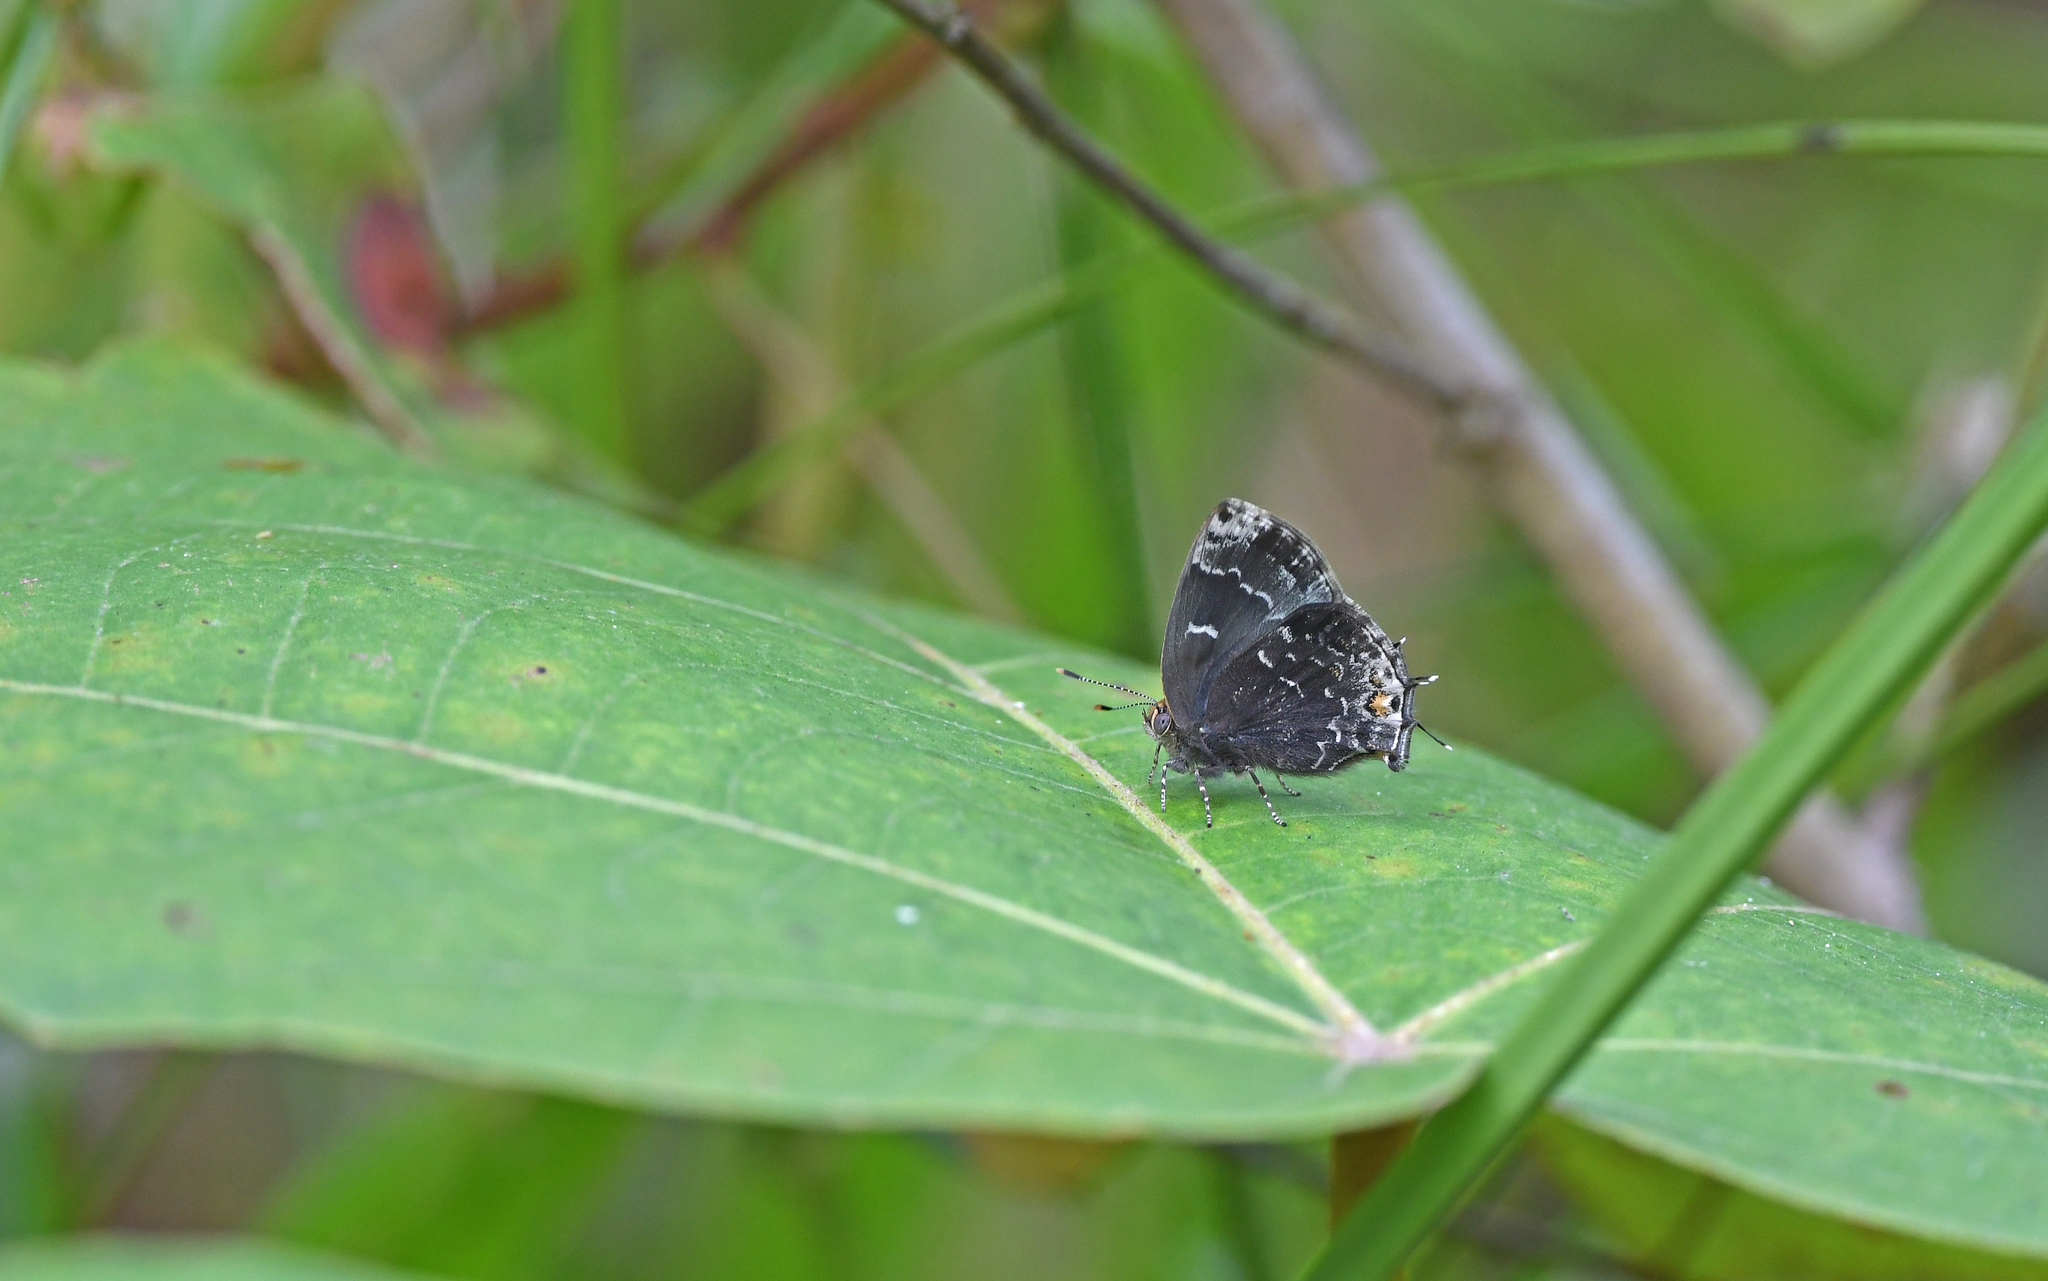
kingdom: Animalia
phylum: Arthropoda
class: Insecta
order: Lepidoptera
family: Lycaenidae
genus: Ocaria
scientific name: Ocaria ocrisia
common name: Black hairstreak
